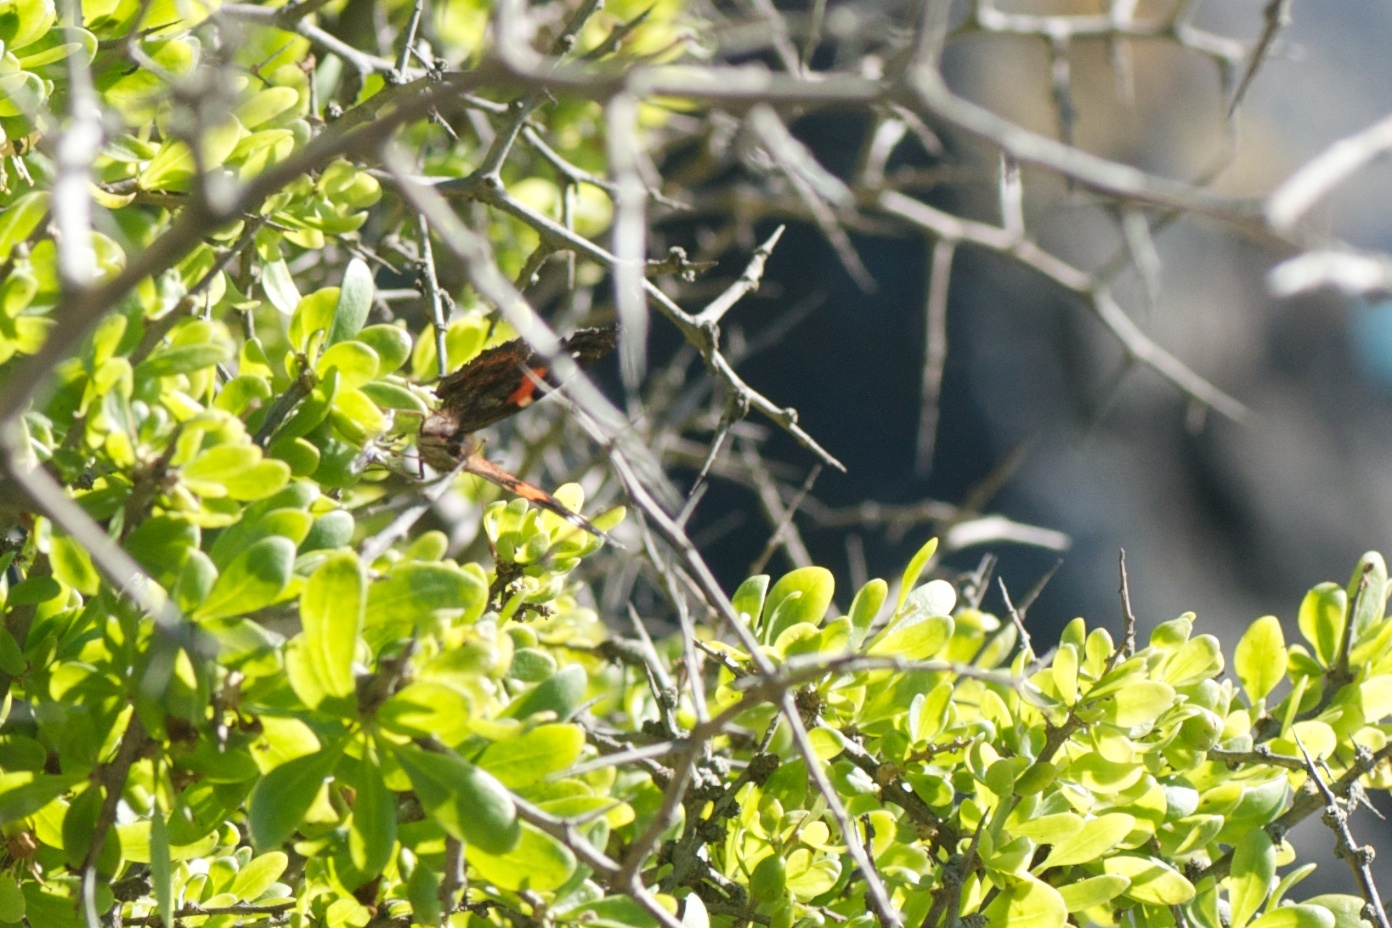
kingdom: Animalia
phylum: Arthropoda
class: Insecta
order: Lepidoptera
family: Nymphalidae
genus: Vanessa
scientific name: Vanessa gonerilla
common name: New zealand red admiral
